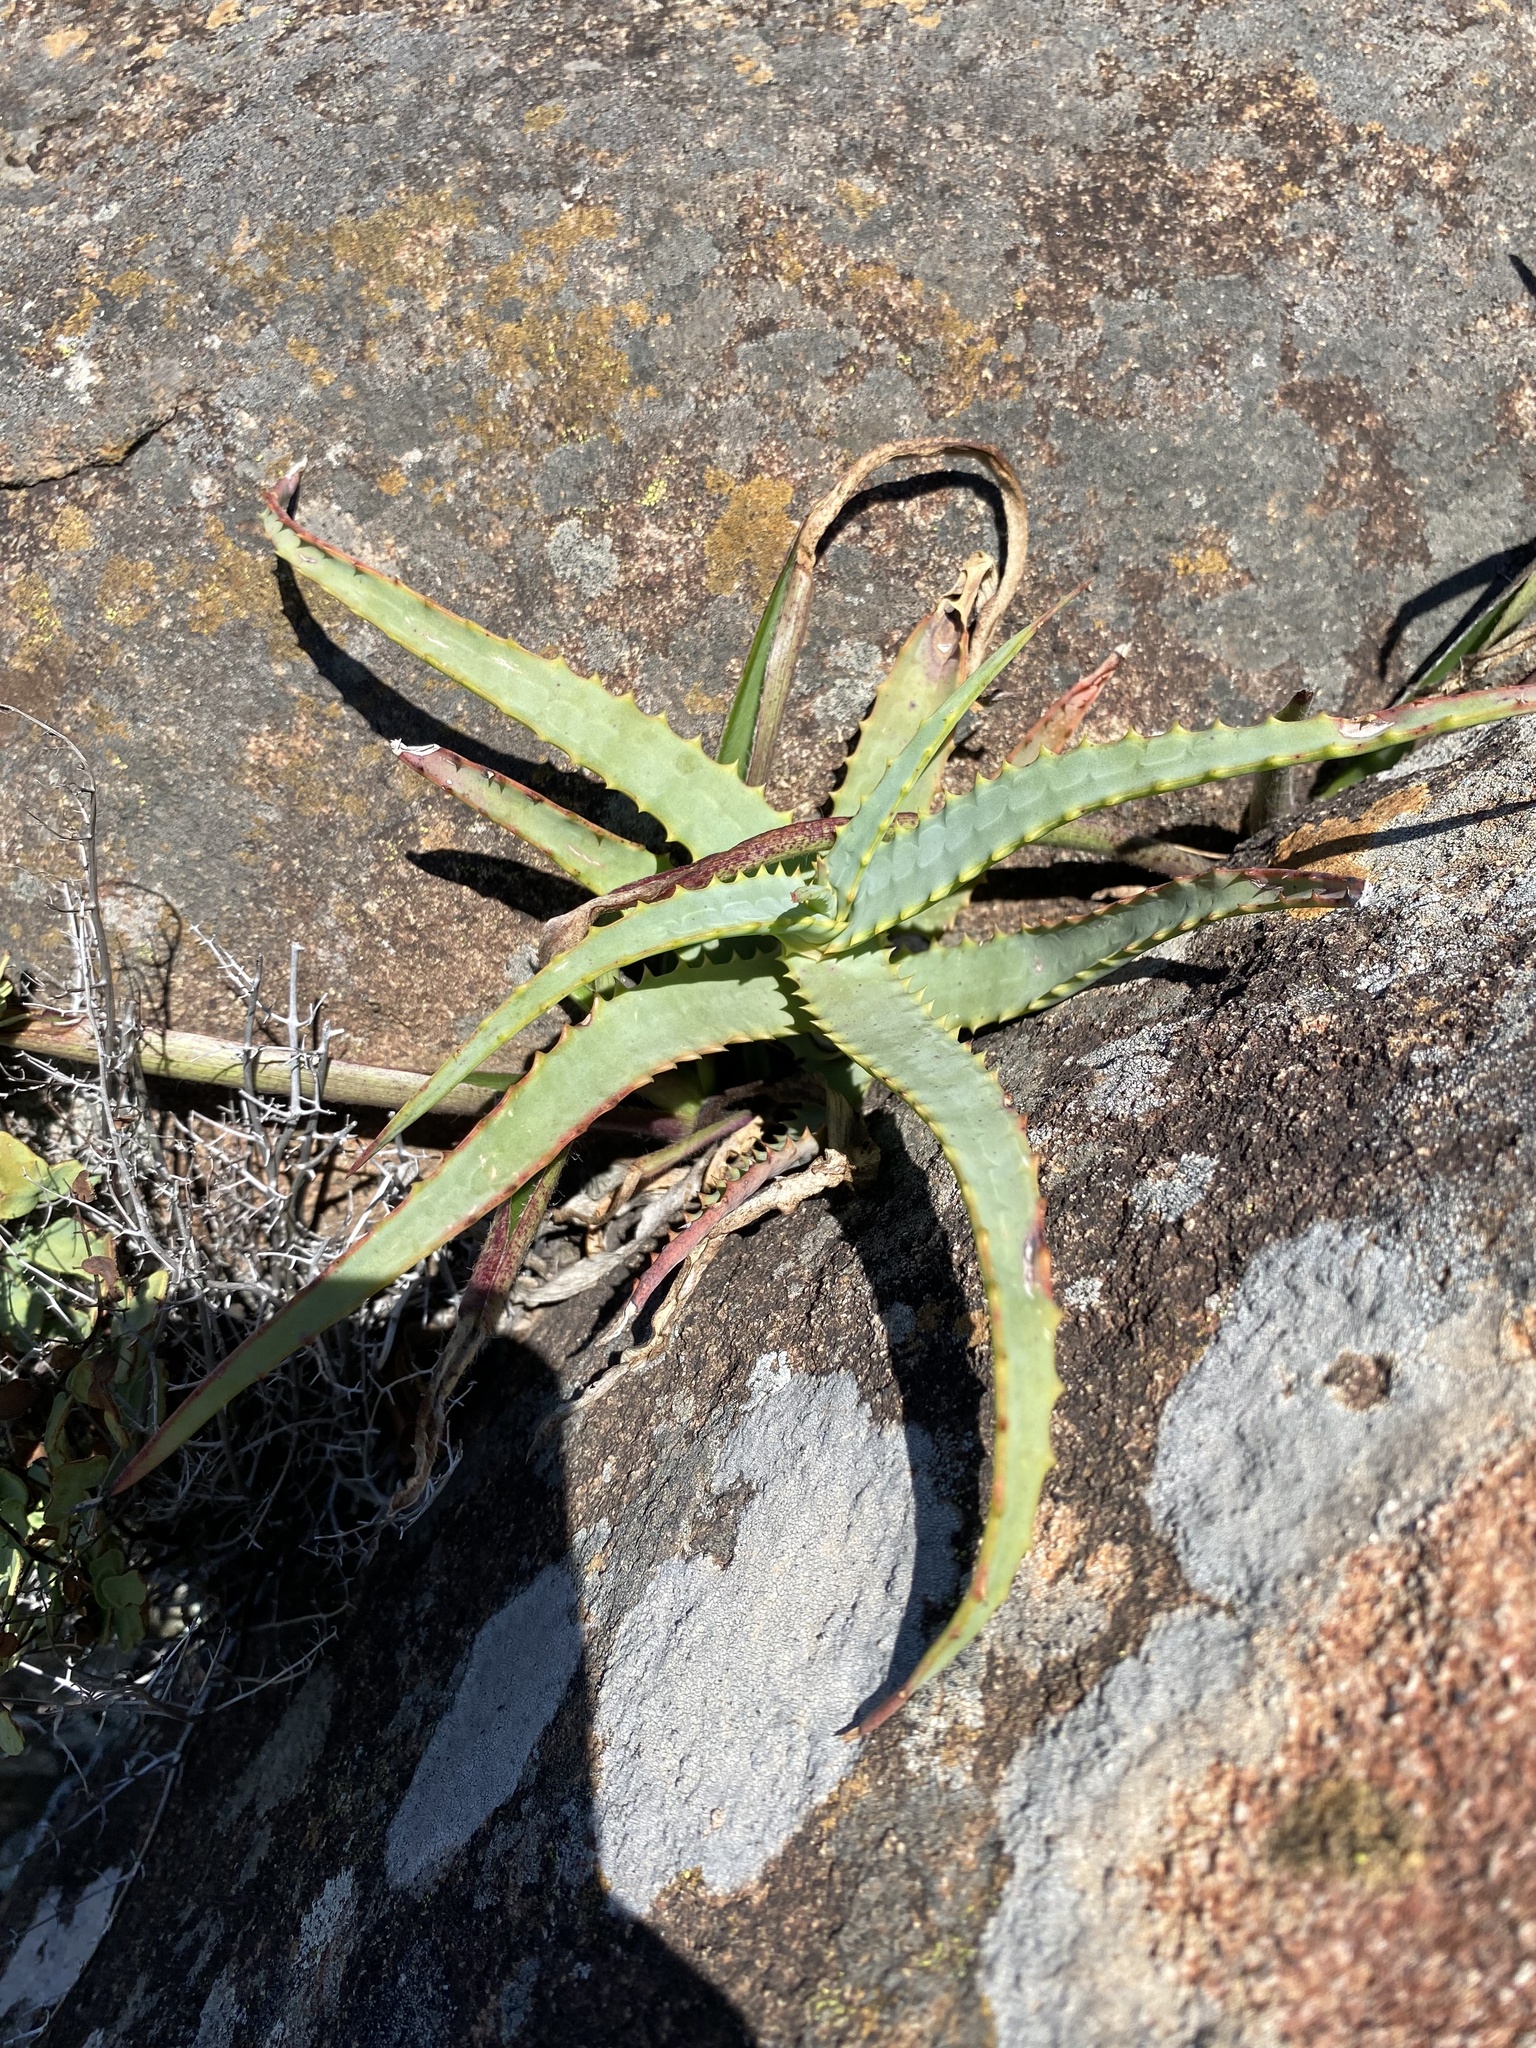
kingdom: Plantae
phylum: Tracheophyta
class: Liliopsida
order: Asparagales
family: Asphodelaceae
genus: Aloe
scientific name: Aloe arborescens
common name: Candelabra aloe
